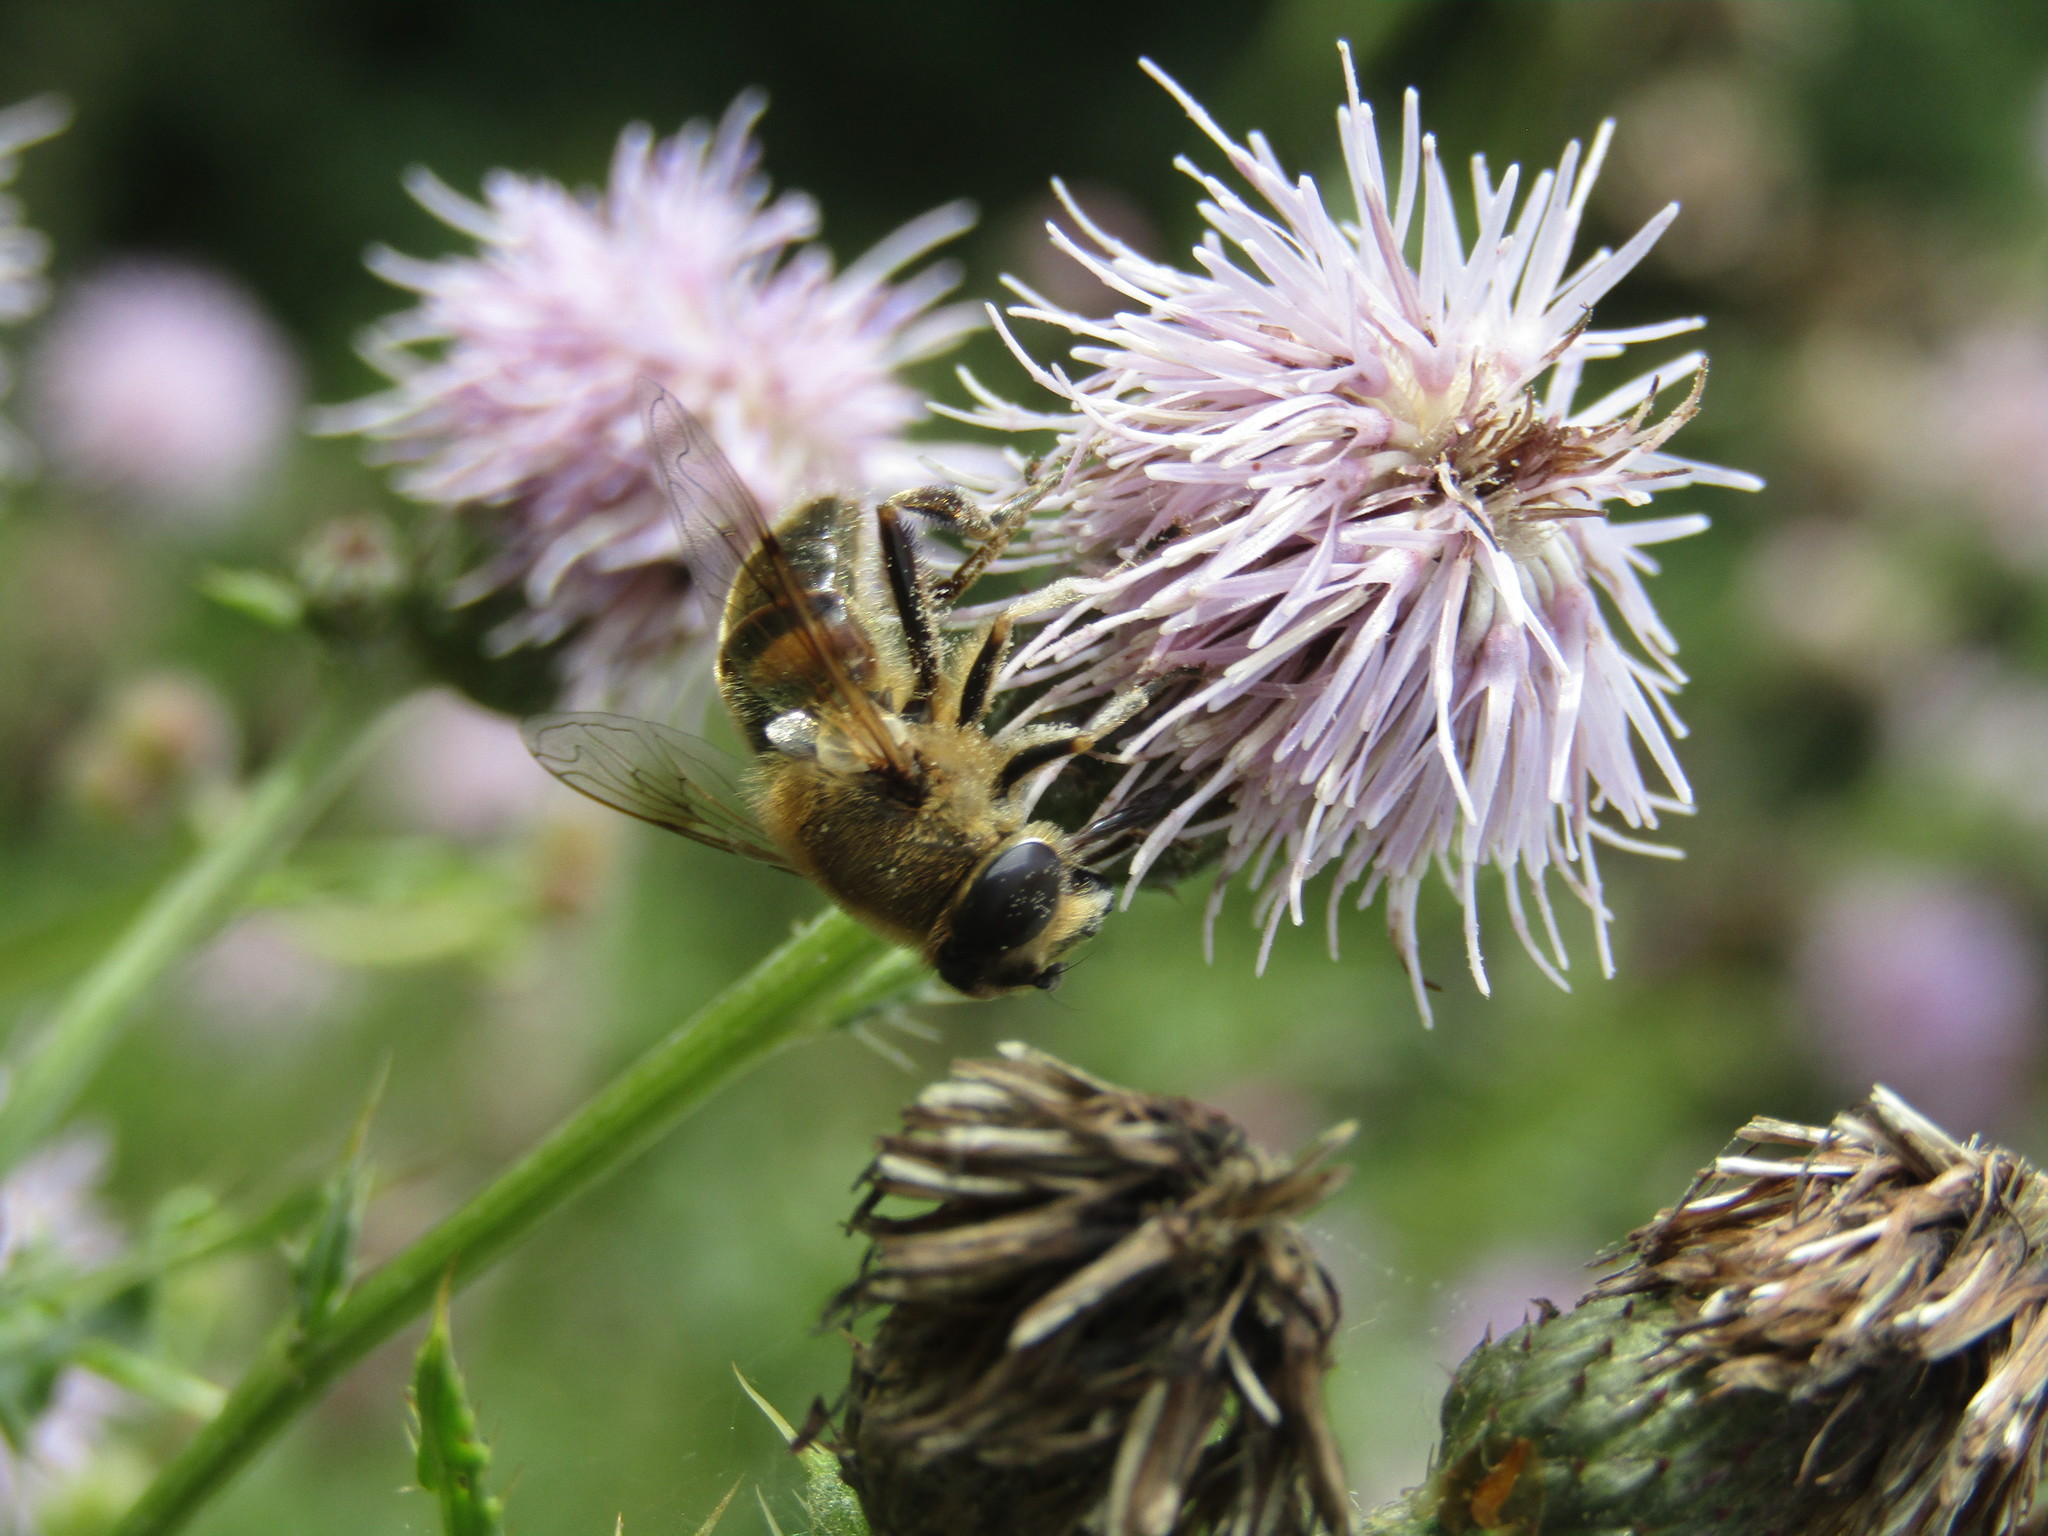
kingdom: Animalia
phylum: Arthropoda
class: Insecta
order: Diptera
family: Syrphidae
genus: Eristalis
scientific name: Eristalis tenax
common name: Drone fly
